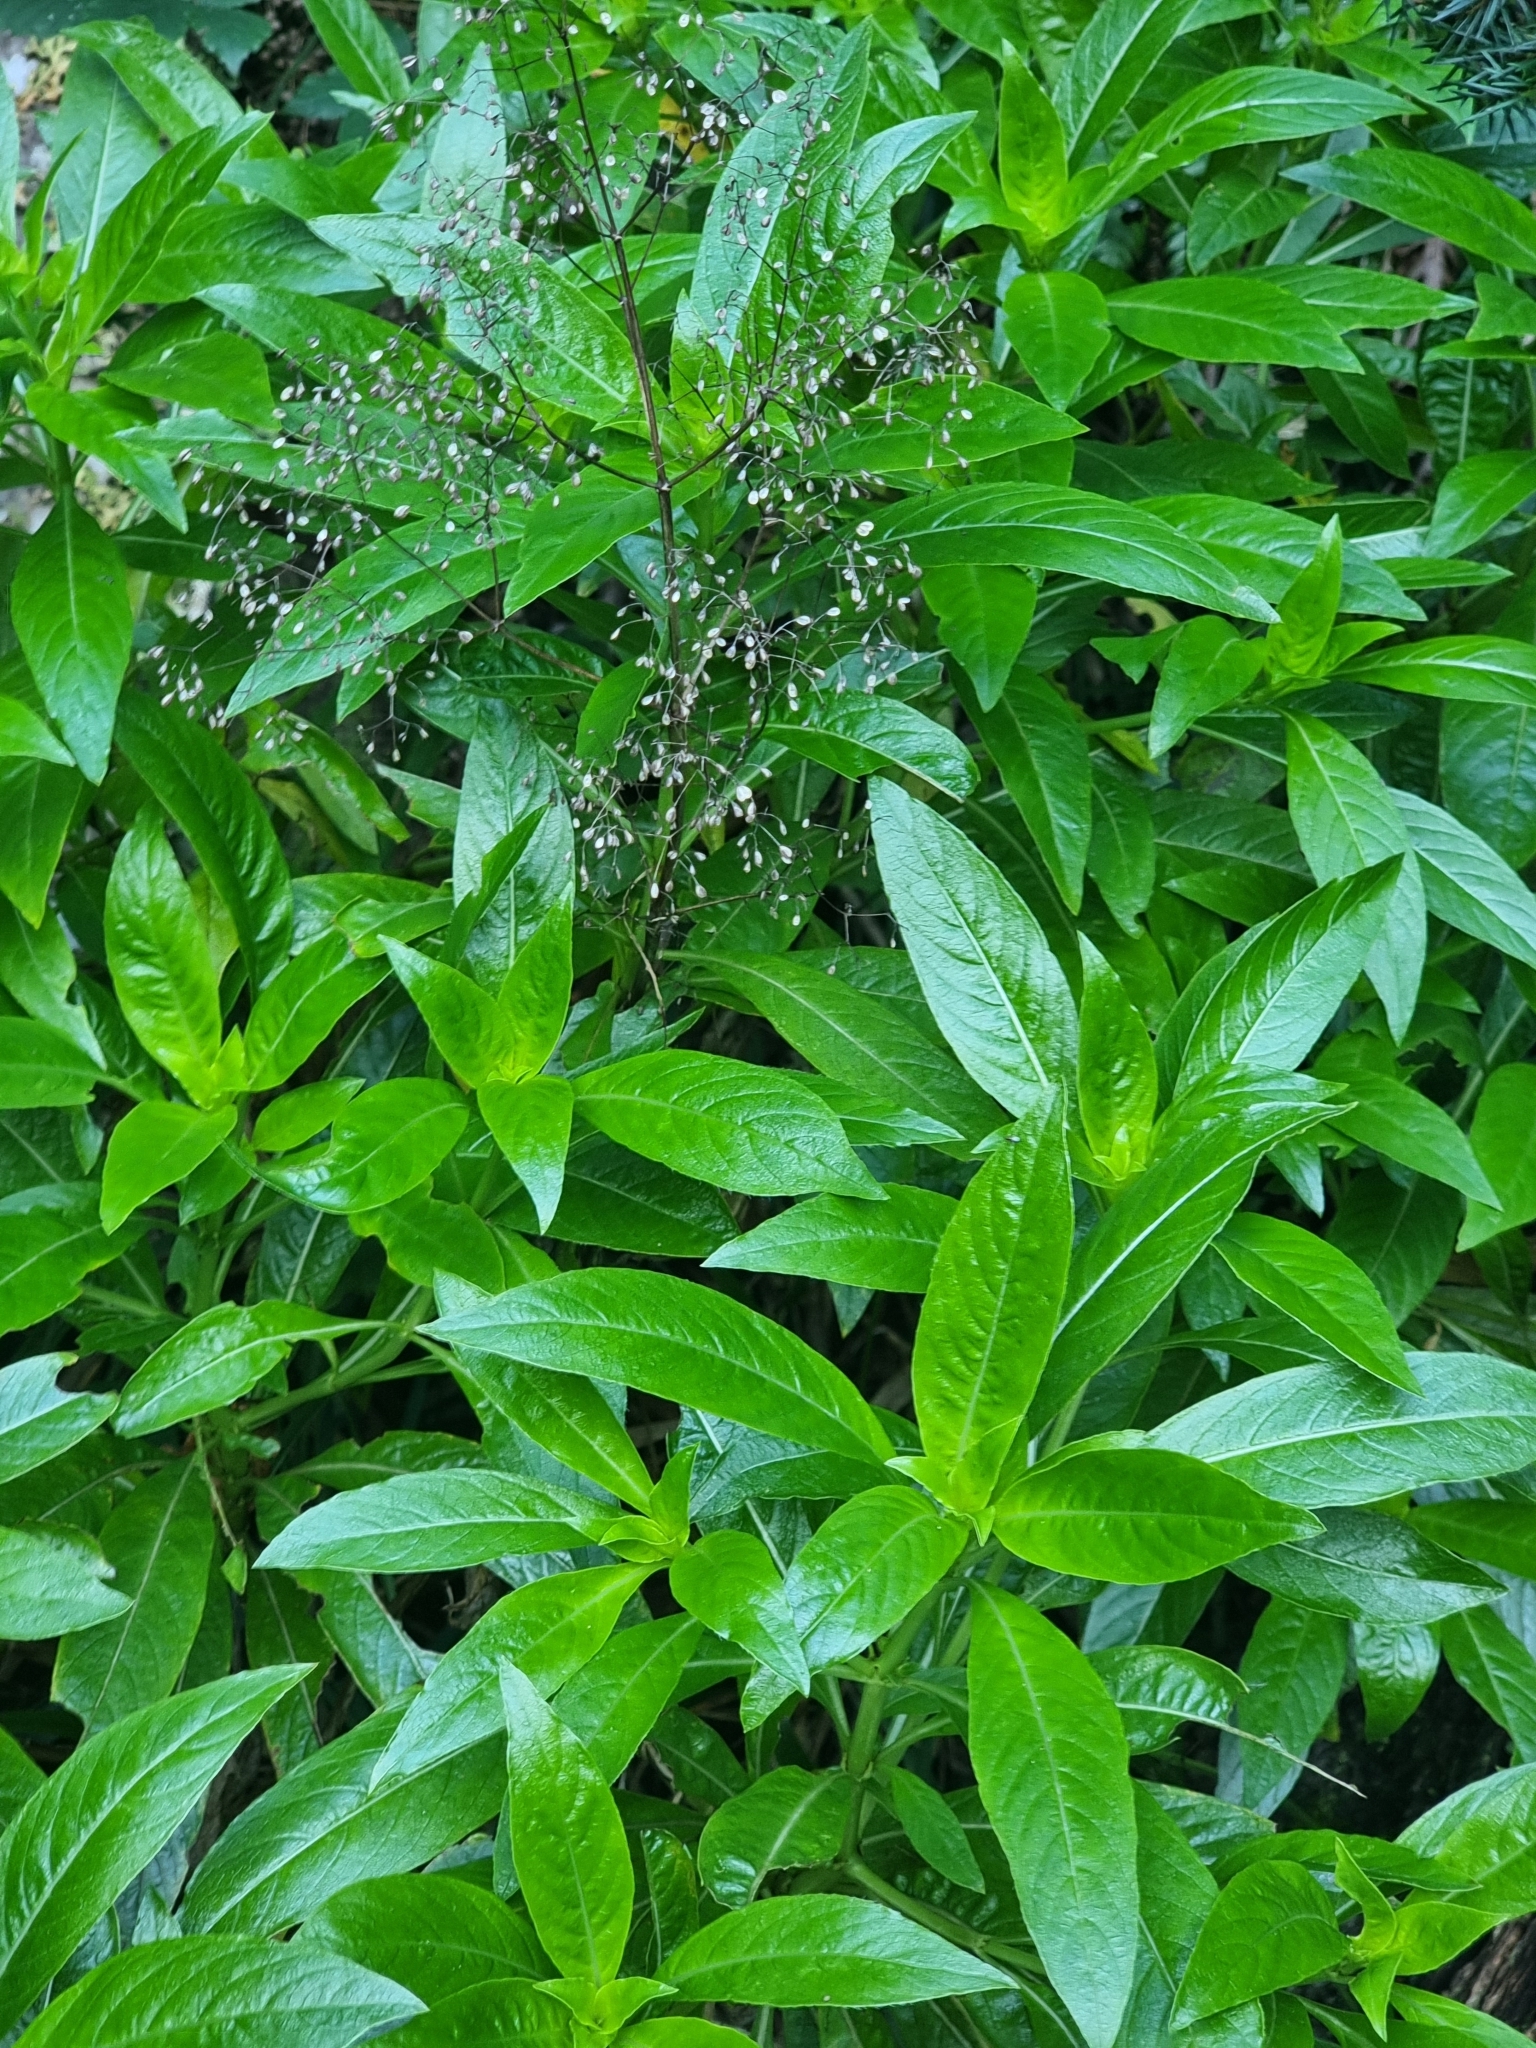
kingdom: Plantae
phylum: Tracheophyta
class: Magnoliopsida
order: Gentianales
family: Rubiaceae
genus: Phyllis
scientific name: Phyllis nobla
